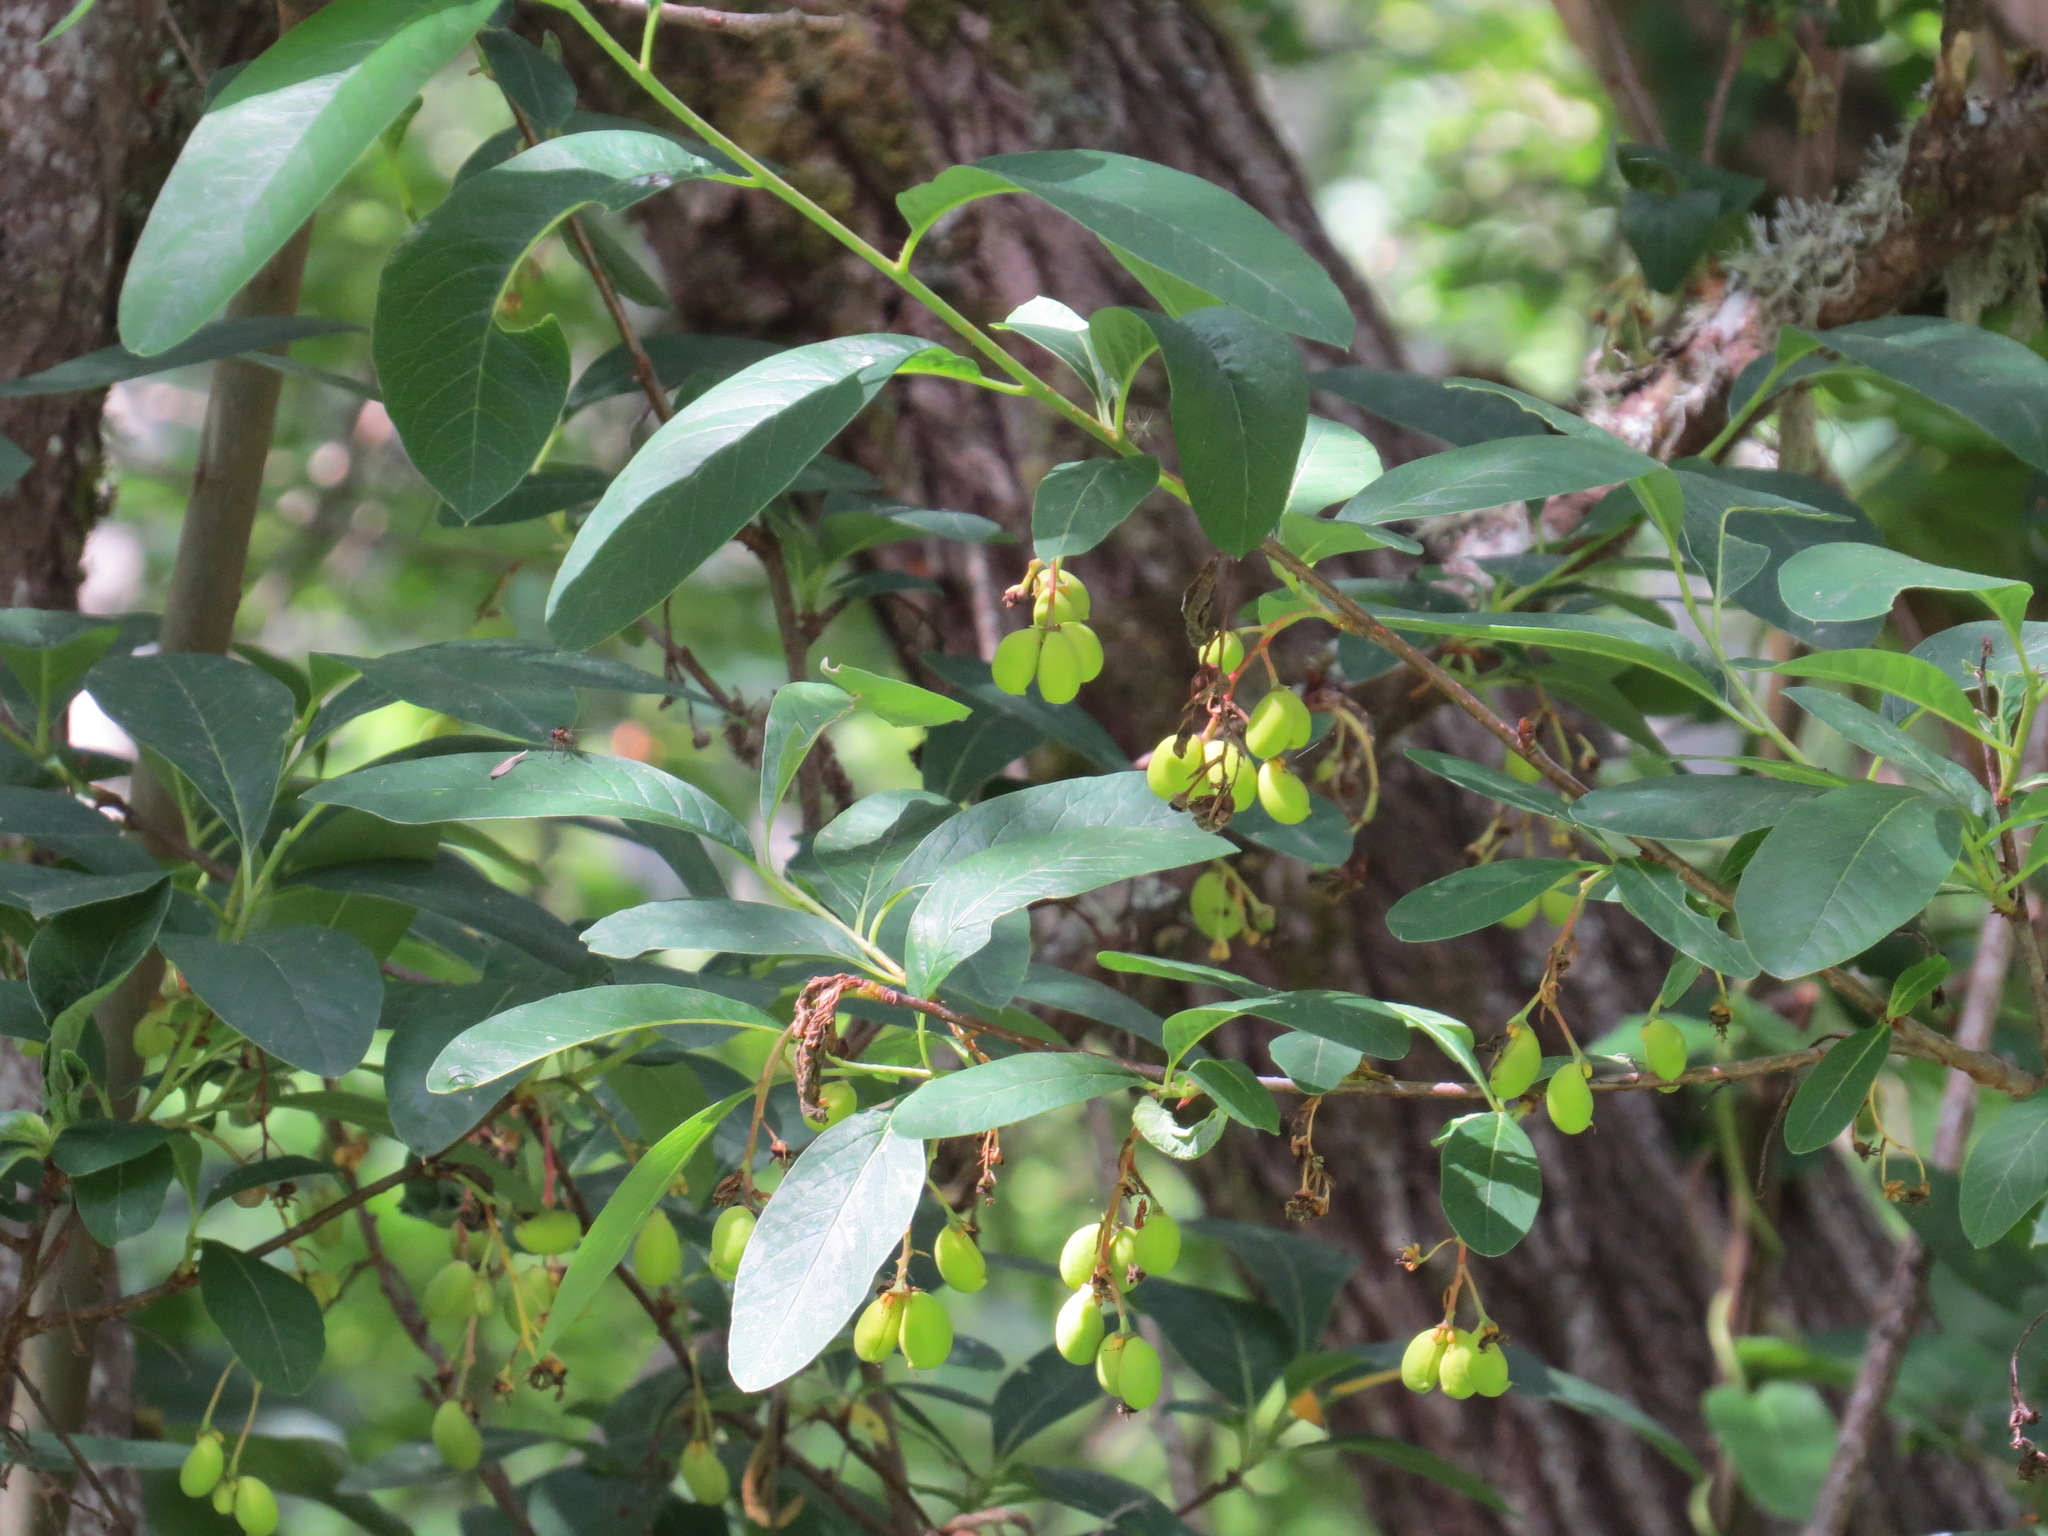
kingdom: Plantae
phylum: Tracheophyta
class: Magnoliopsida
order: Rosales
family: Rosaceae
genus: Oemleria
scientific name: Oemleria cerasiformis
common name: Osoberry
